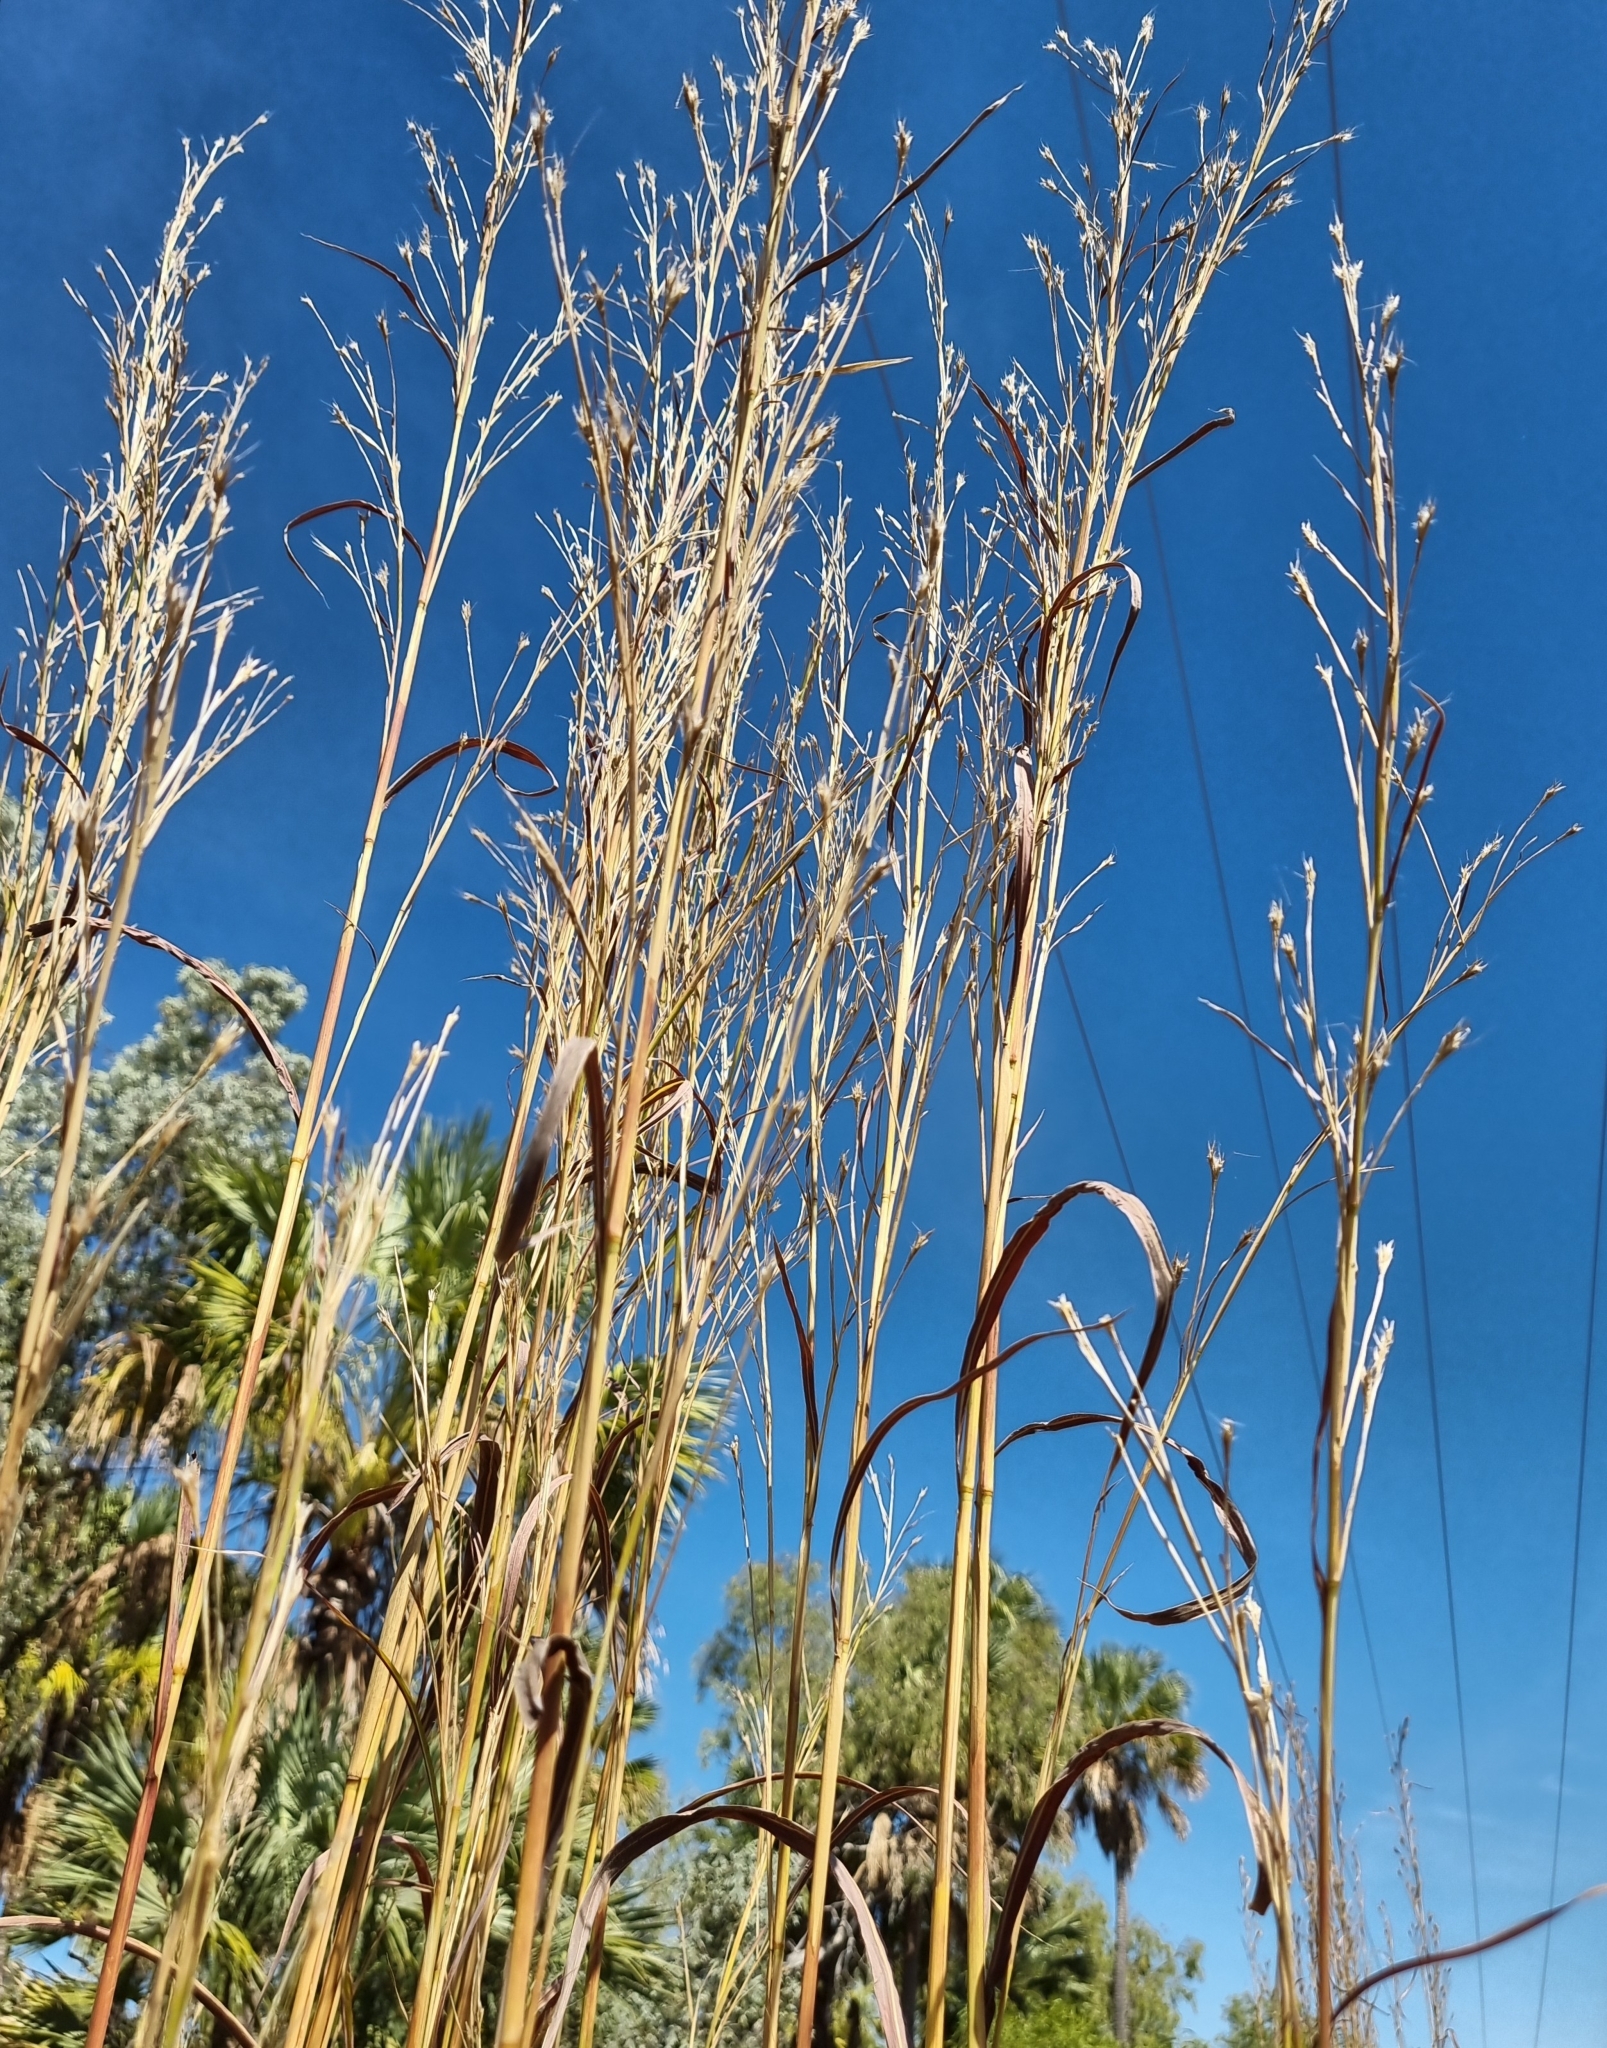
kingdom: Plantae
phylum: Tracheophyta
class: Liliopsida
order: Poales
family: Poaceae
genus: Andropogon
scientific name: Andropogon gayanus
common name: Tambuki grass
